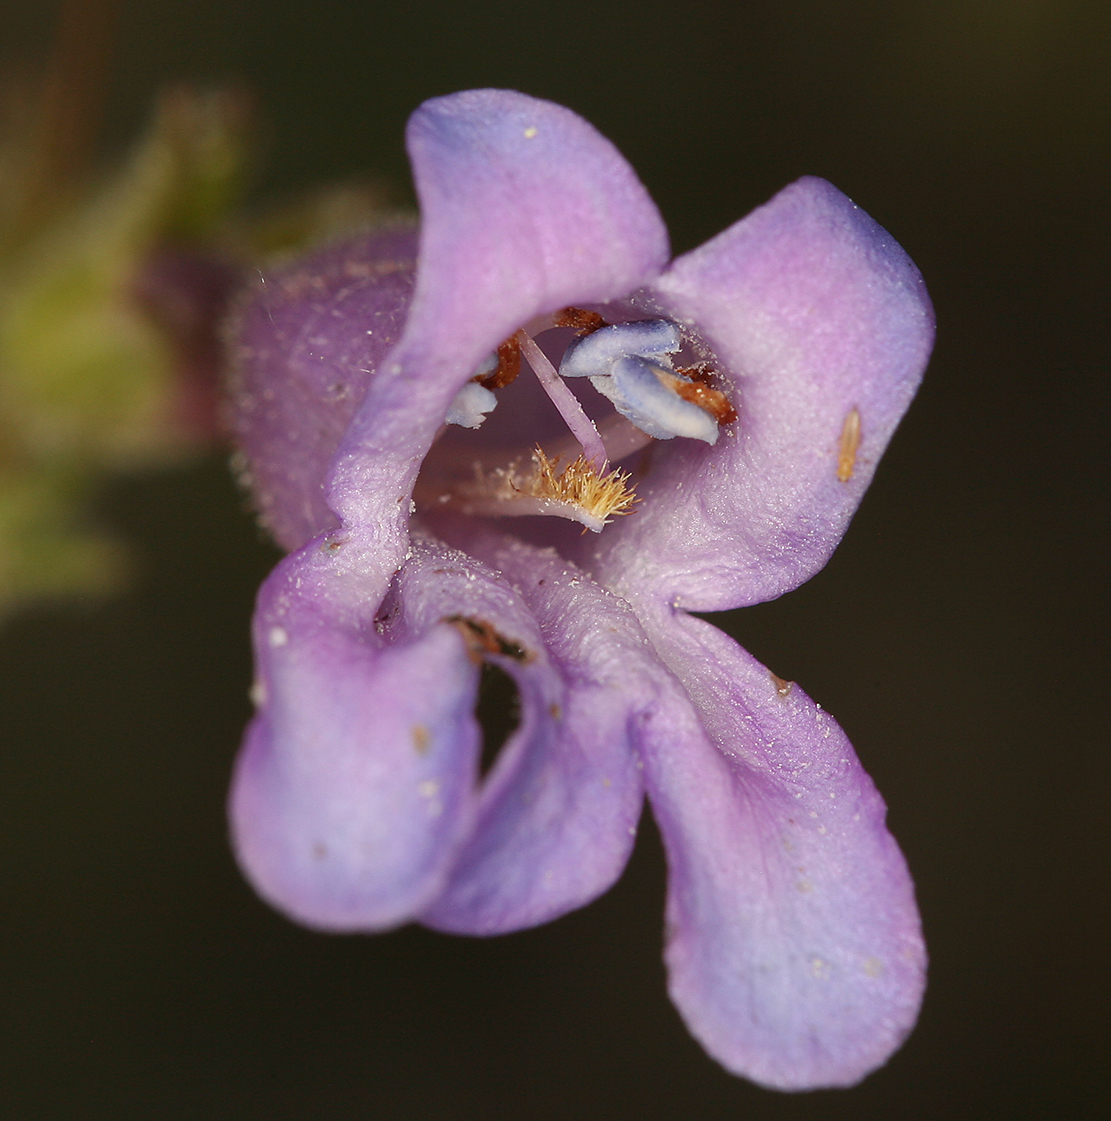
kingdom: Plantae
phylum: Tracheophyta
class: Magnoliopsida
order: Lamiales
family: Plantaginaceae
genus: Penstemon
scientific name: Penstemon papillatus
